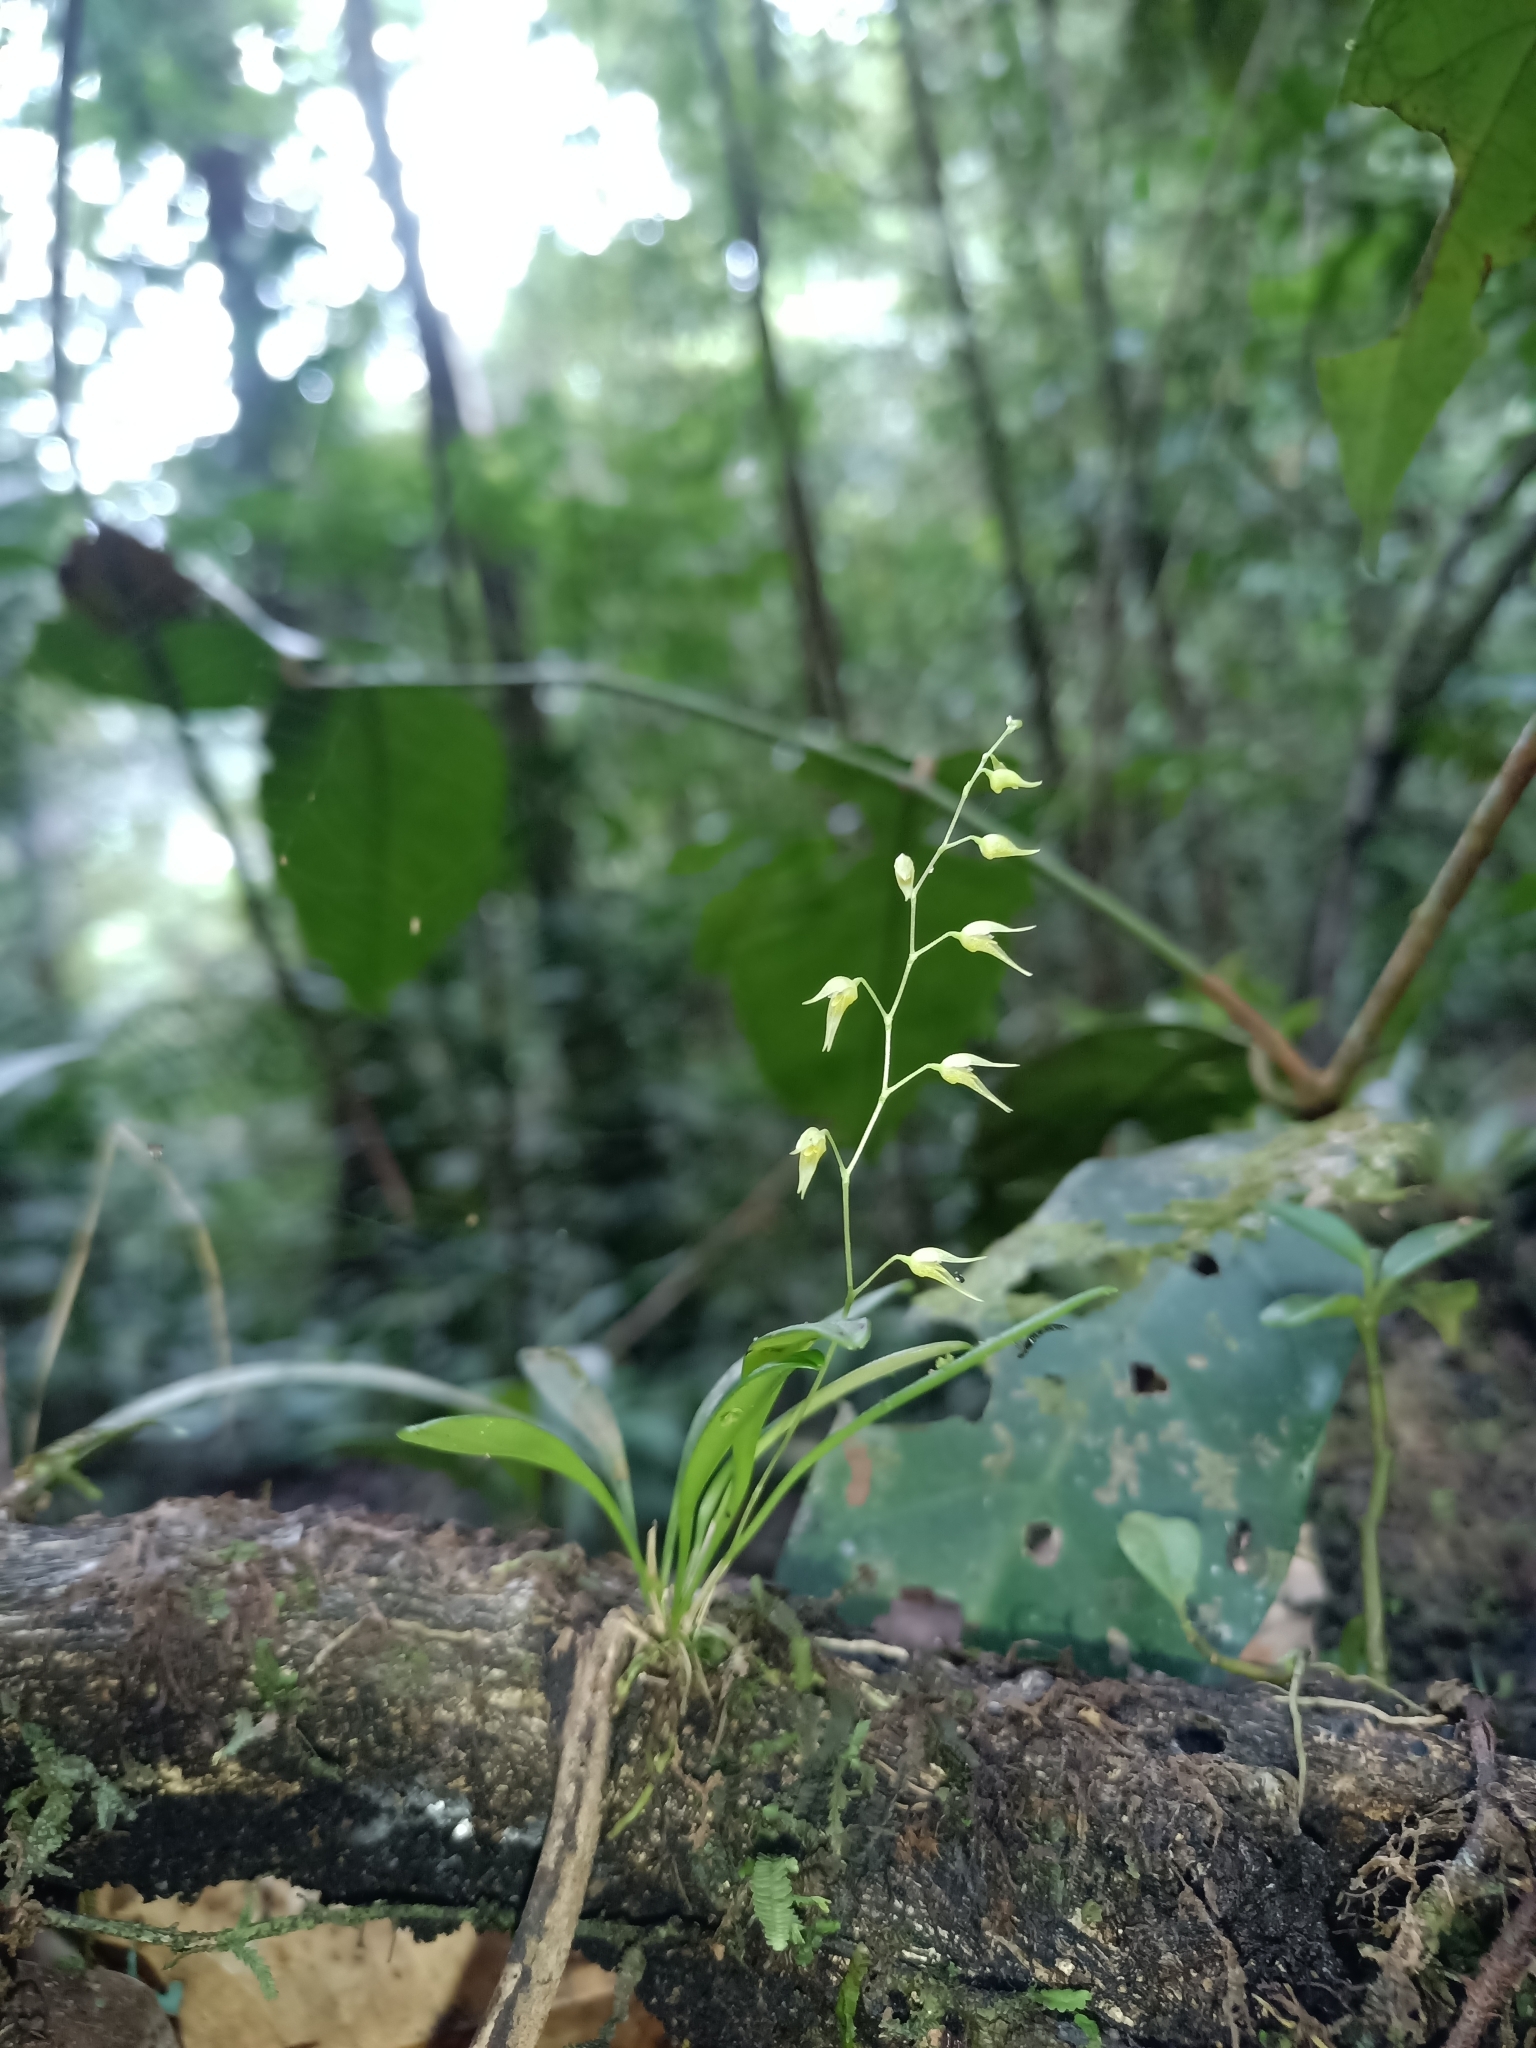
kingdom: Plantae
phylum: Tracheophyta
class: Liliopsida
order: Asparagales
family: Orchidaceae
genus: Specklinia
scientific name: Specklinia picta
